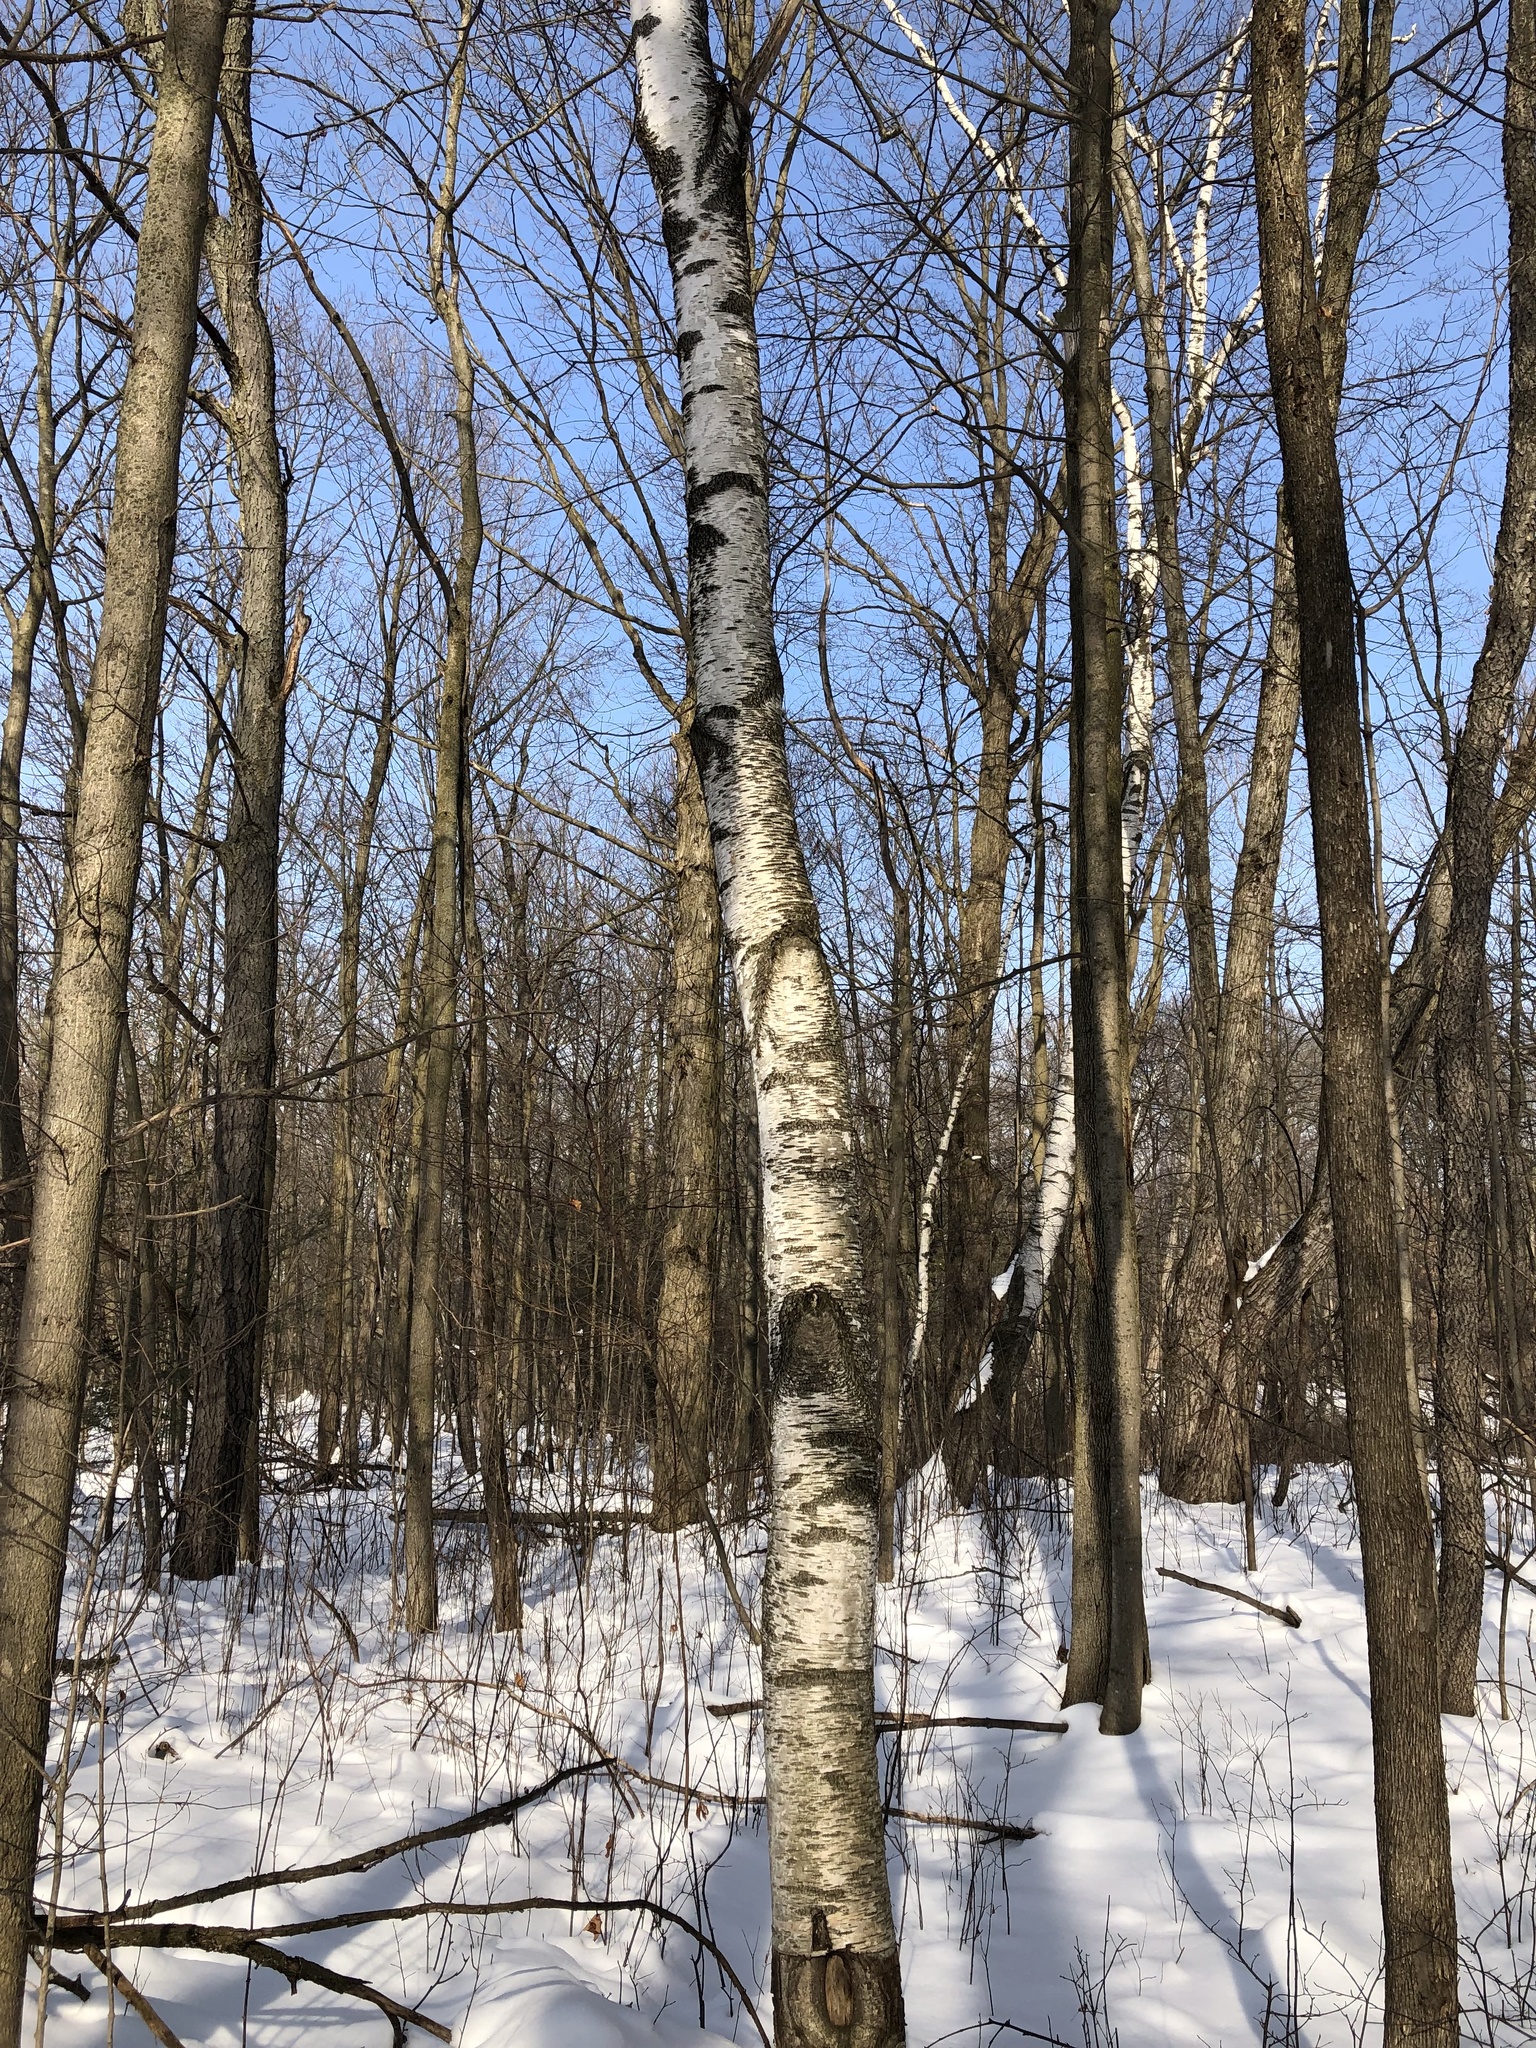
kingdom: Plantae
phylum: Tracheophyta
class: Magnoliopsida
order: Fagales
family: Betulaceae
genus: Betula
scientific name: Betula papyrifera
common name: Paper birch
